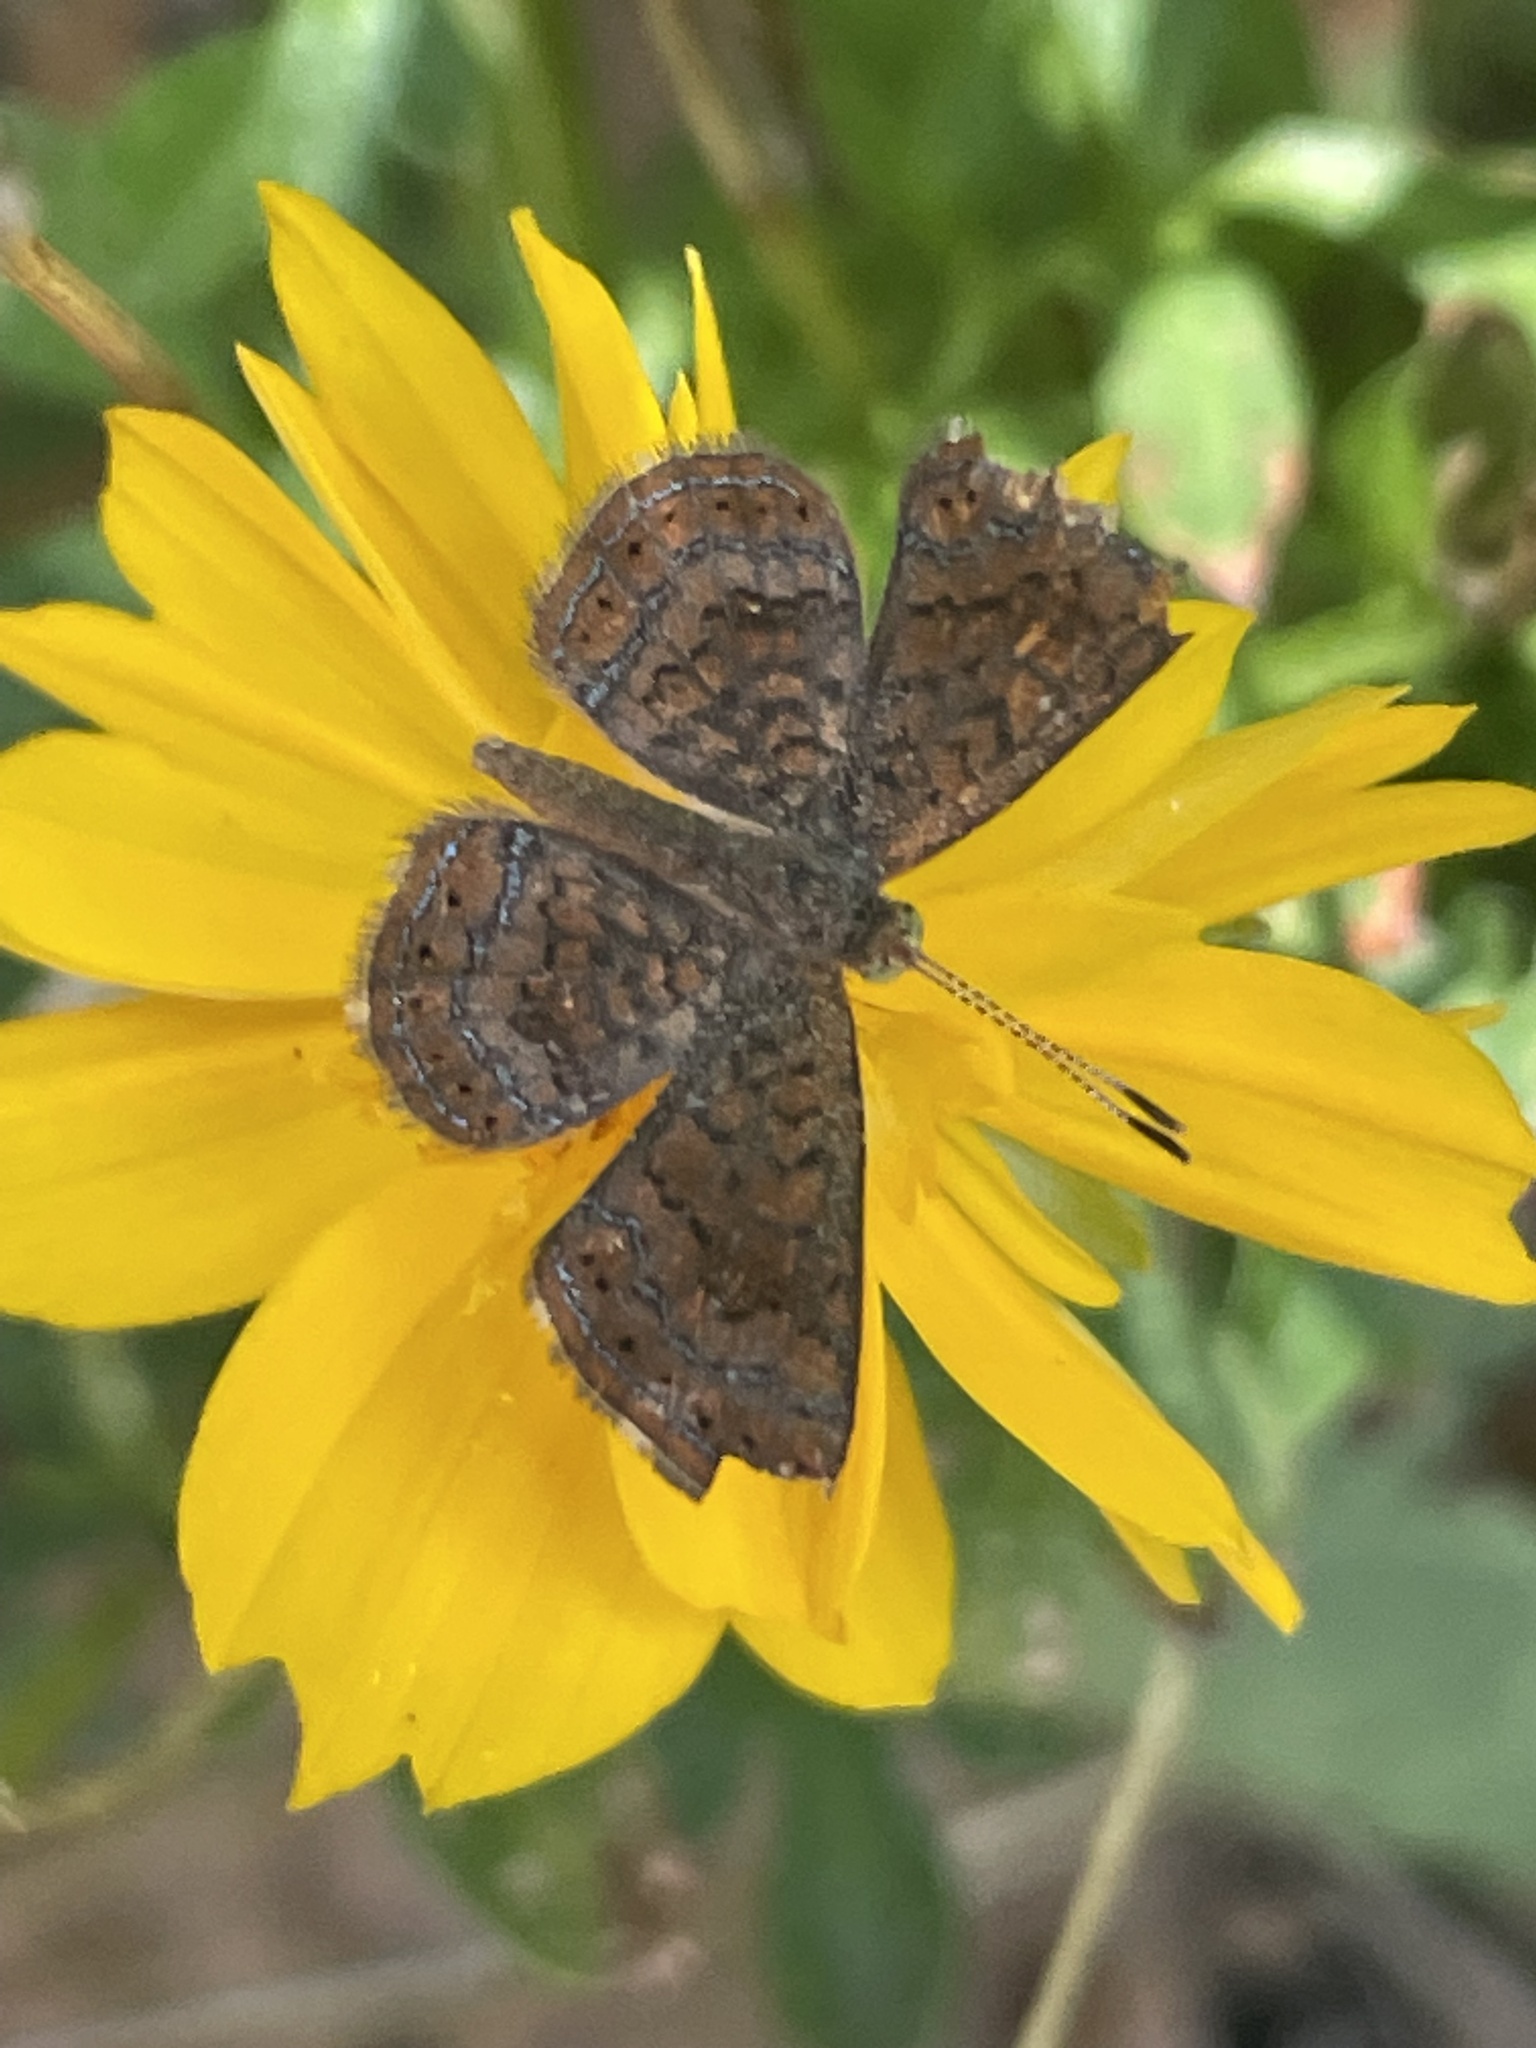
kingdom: Animalia
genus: Calephelis
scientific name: Calephelis nemesis
